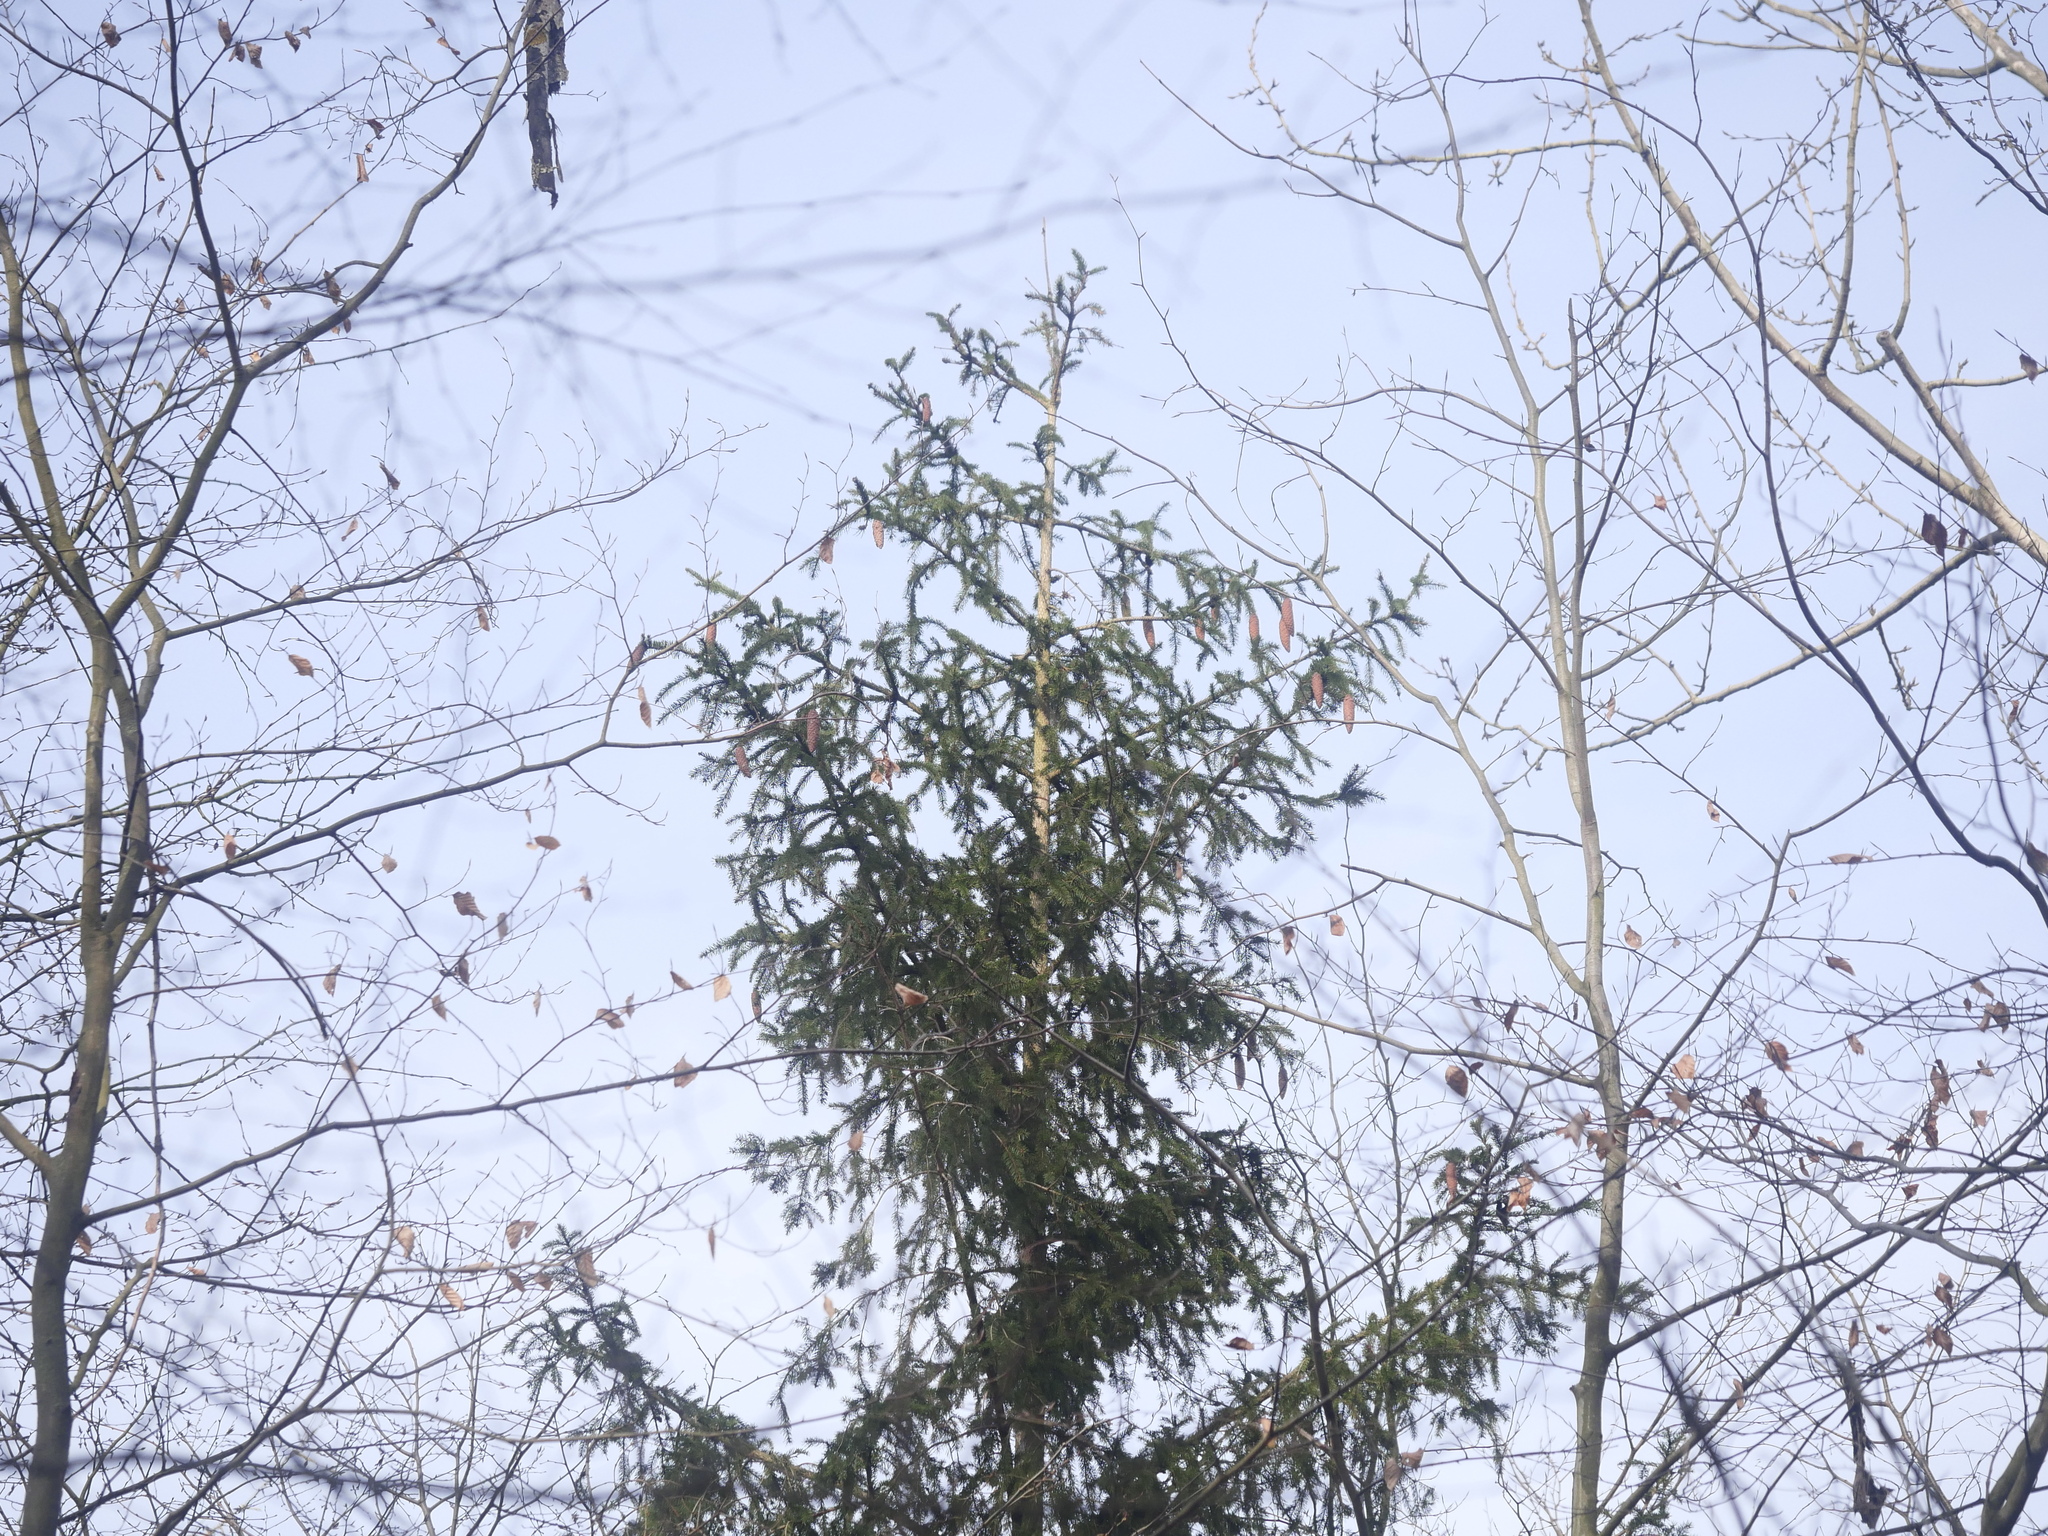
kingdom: Plantae
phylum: Tracheophyta
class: Pinopsida
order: Pinales
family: Pinaceae
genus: Picea
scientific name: Picea abies
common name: Norway spruce
